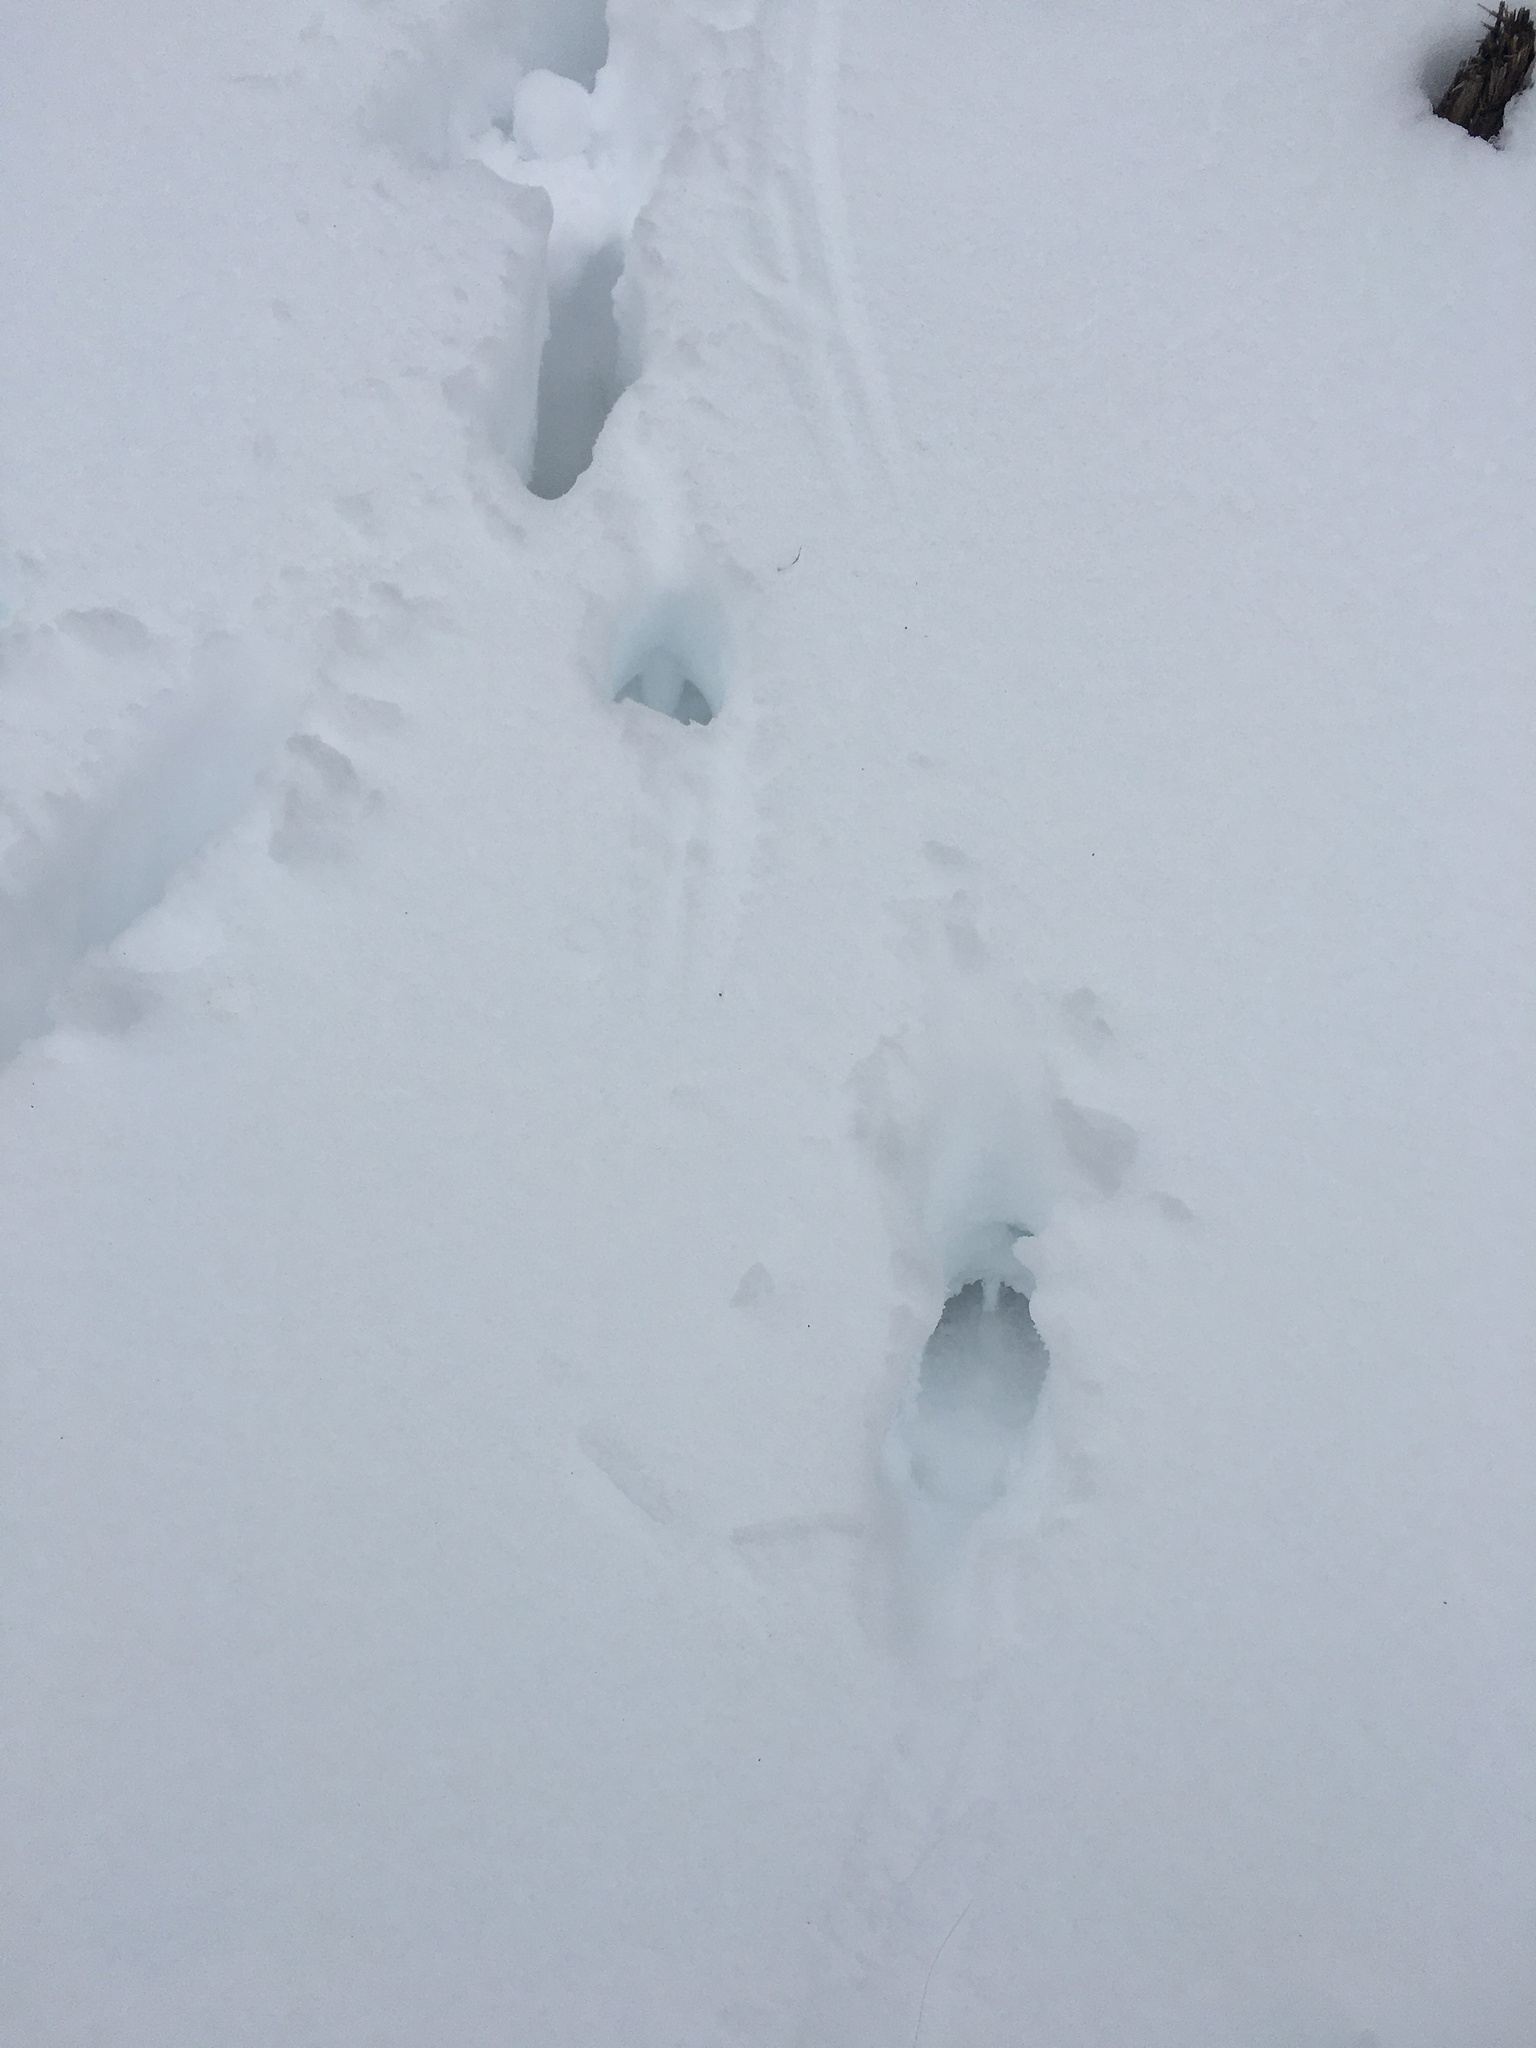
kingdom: Animalia
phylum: Chordata
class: Mammalia
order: Artiodactyla
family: Cervidae
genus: Odocoileus
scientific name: Odocoileus virginianus
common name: White-tailed deer
